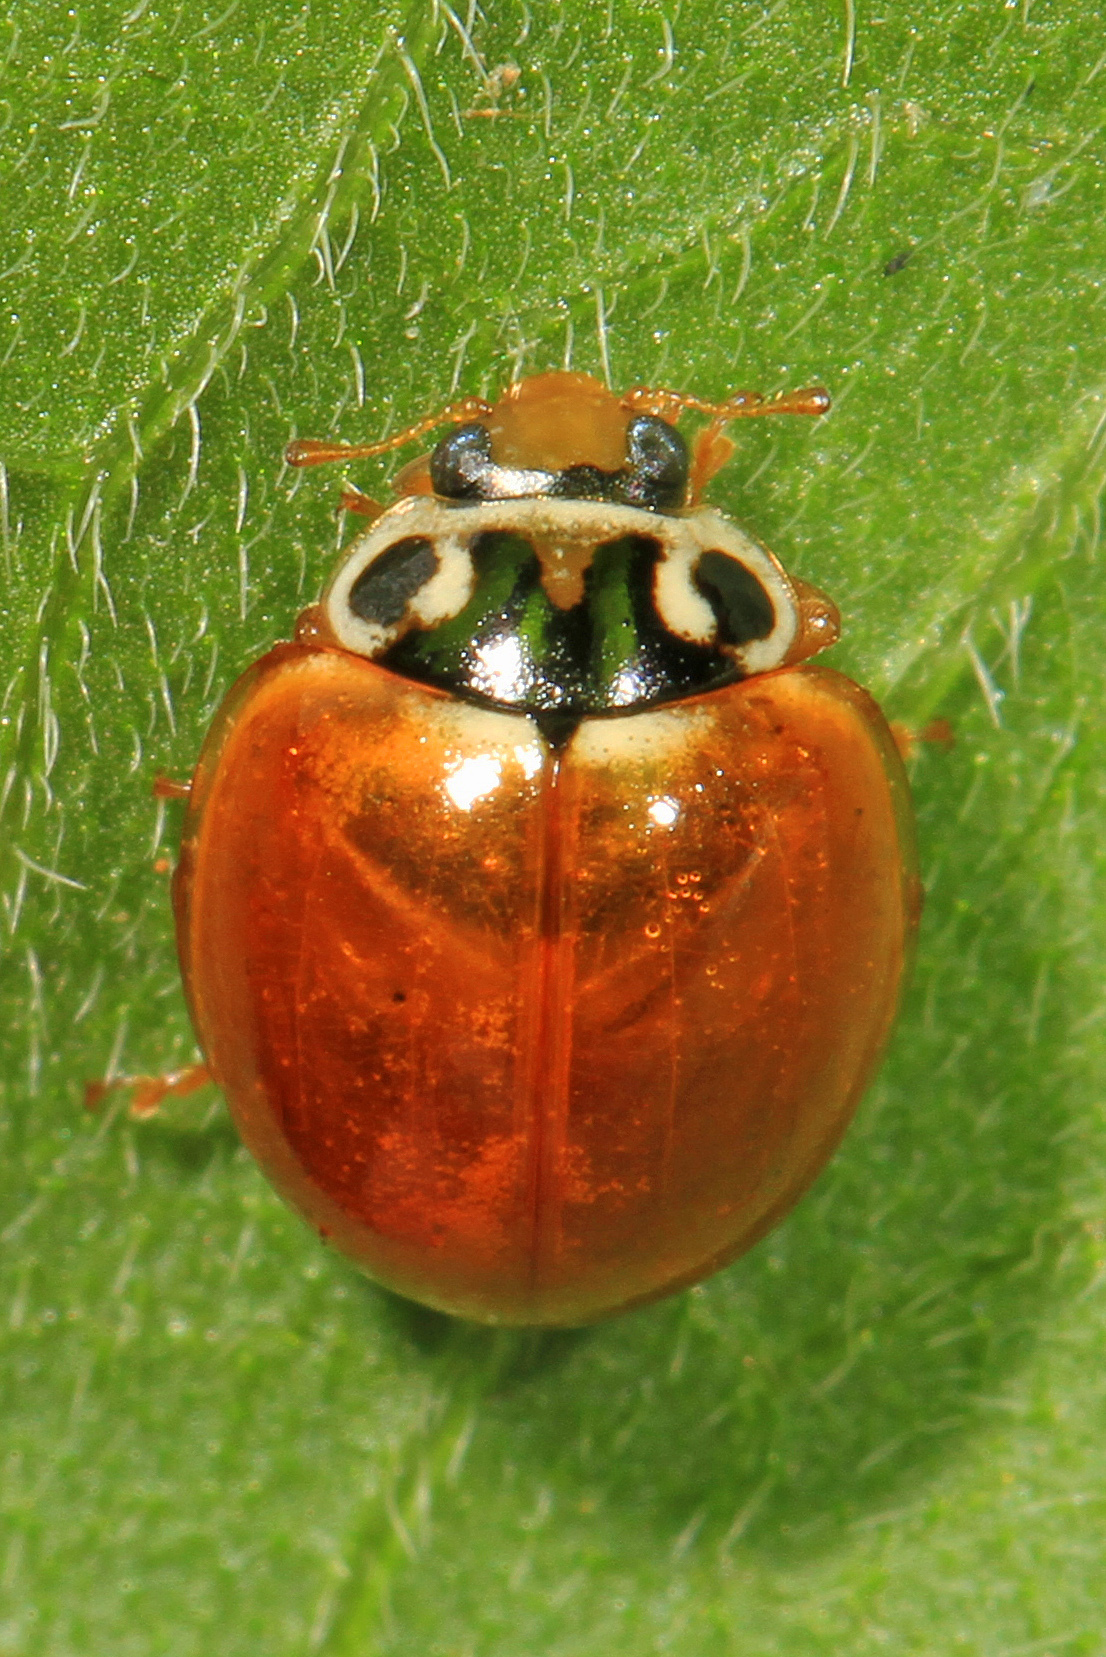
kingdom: Animalia
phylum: Arthropoda
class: Insecta
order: Coleoptera
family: Coccinellidae
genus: Cycloneda
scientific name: Cycloneda munda
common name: Polished lady beetle
